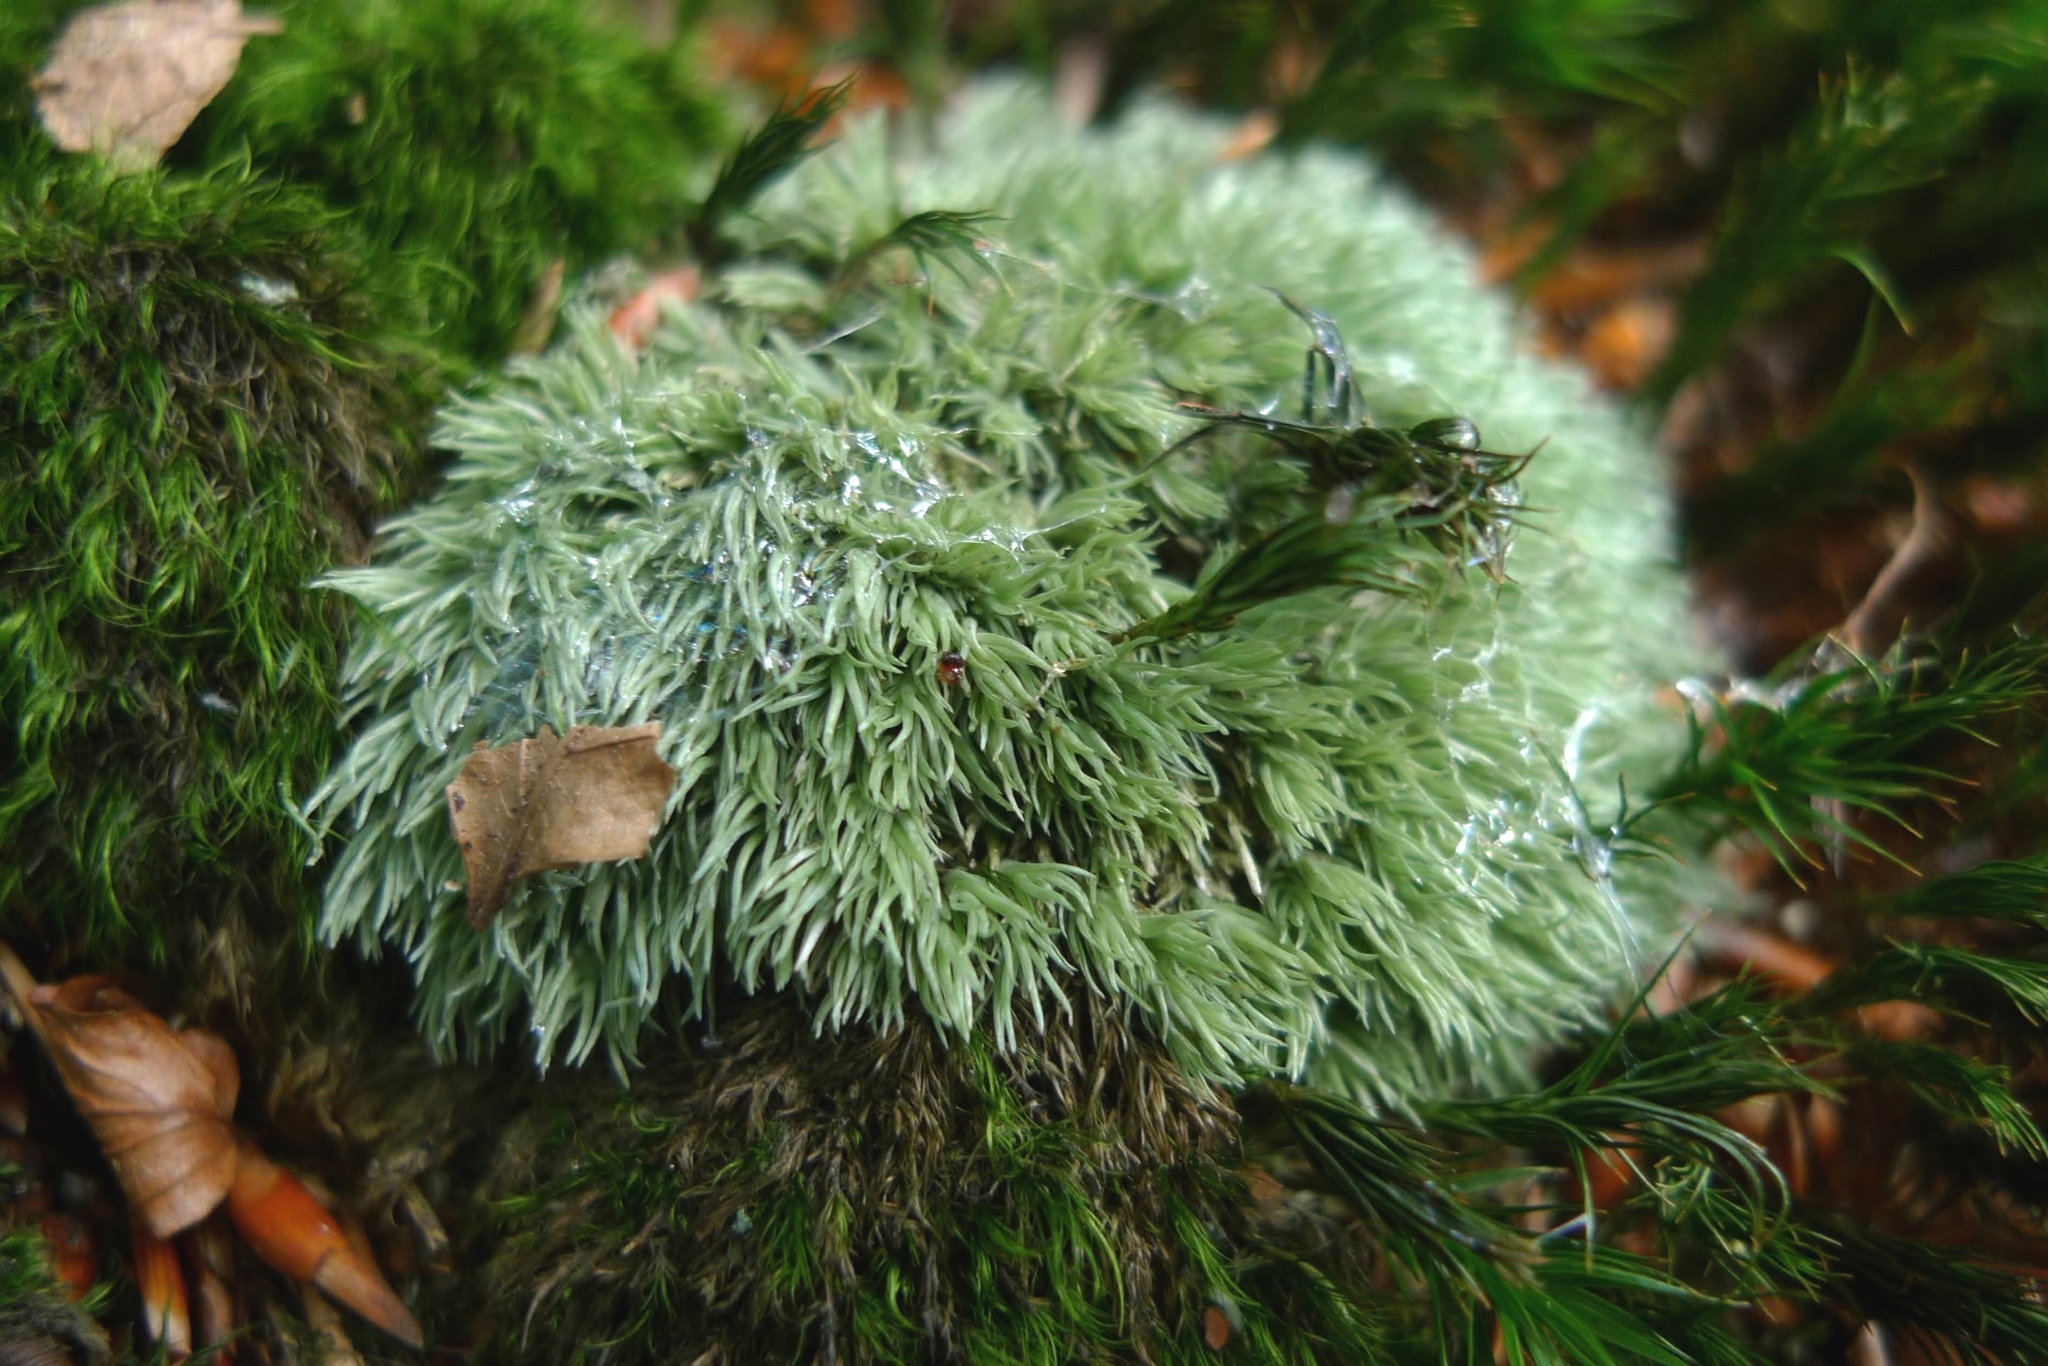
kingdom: Plantae
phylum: Bryophyta
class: Bryopsida
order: Dicranales
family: Leucobryaceae
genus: Leucobryum
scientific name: Leucobryum glaucum
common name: Large white-moss
